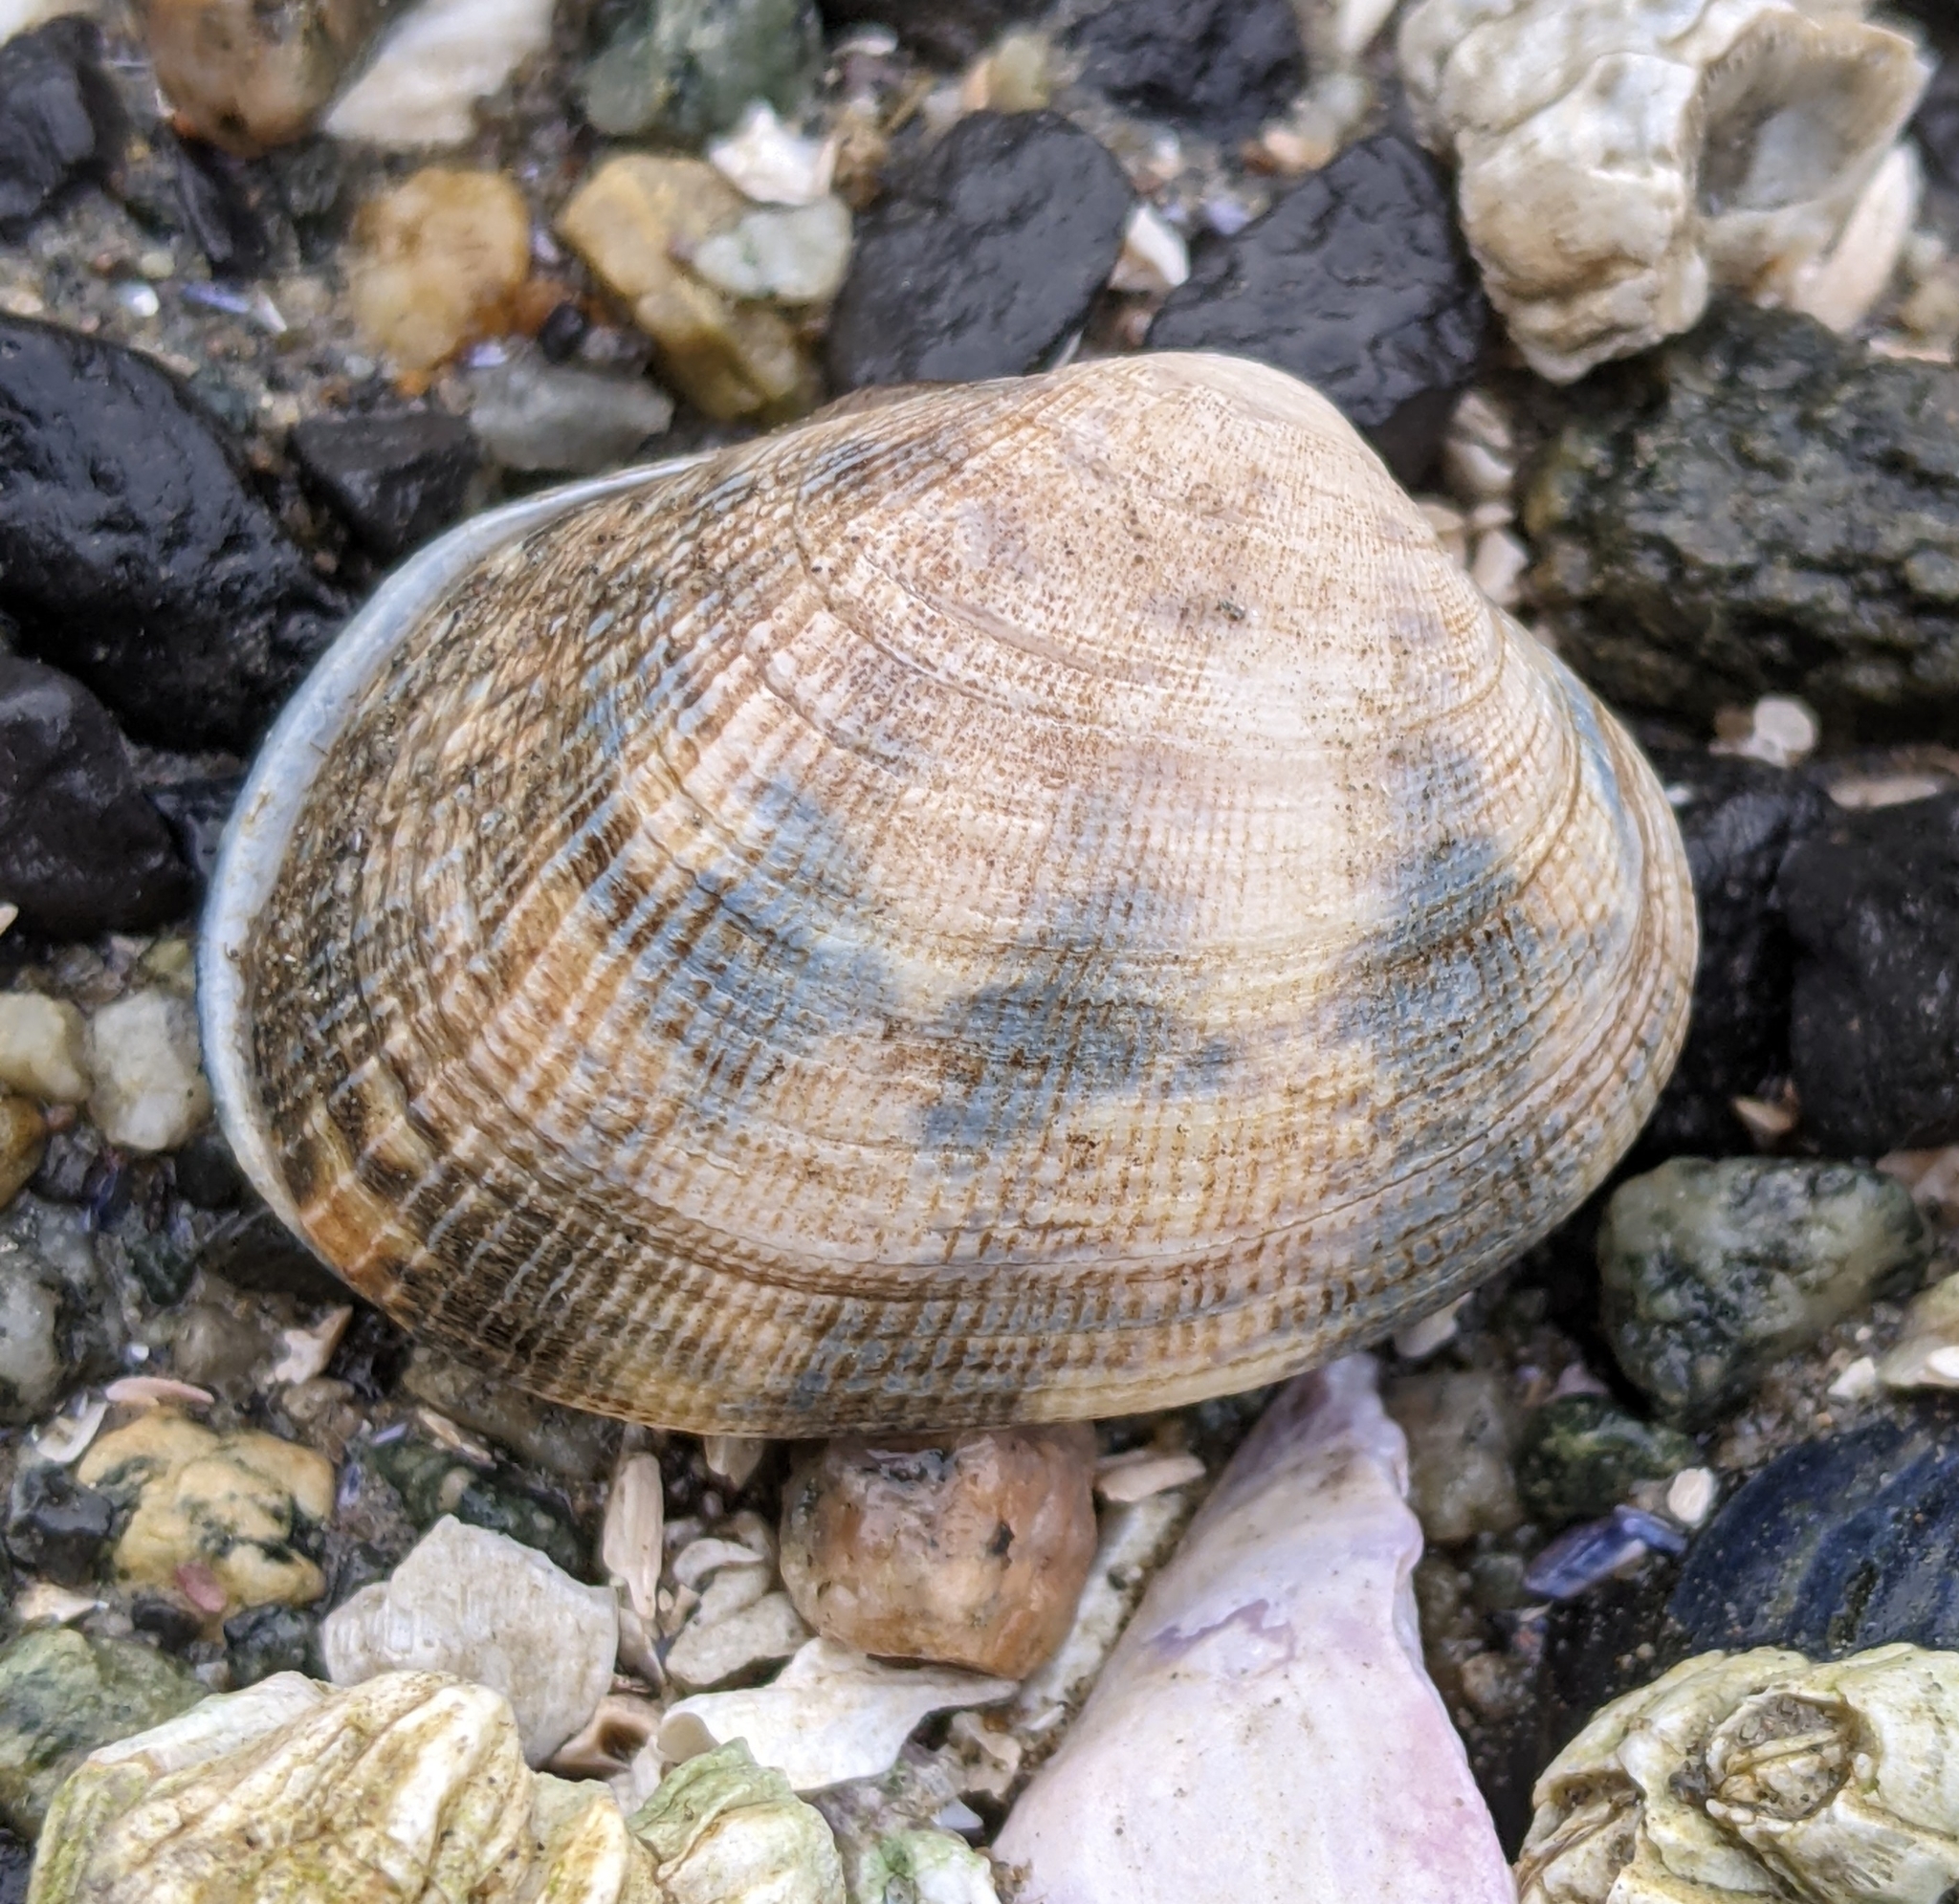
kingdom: Animalia
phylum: Mollusca
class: Bivalvia
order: Venerida
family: Veneridae
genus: Ruditapes
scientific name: Ruditapes philippinarum
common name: Manila clam
